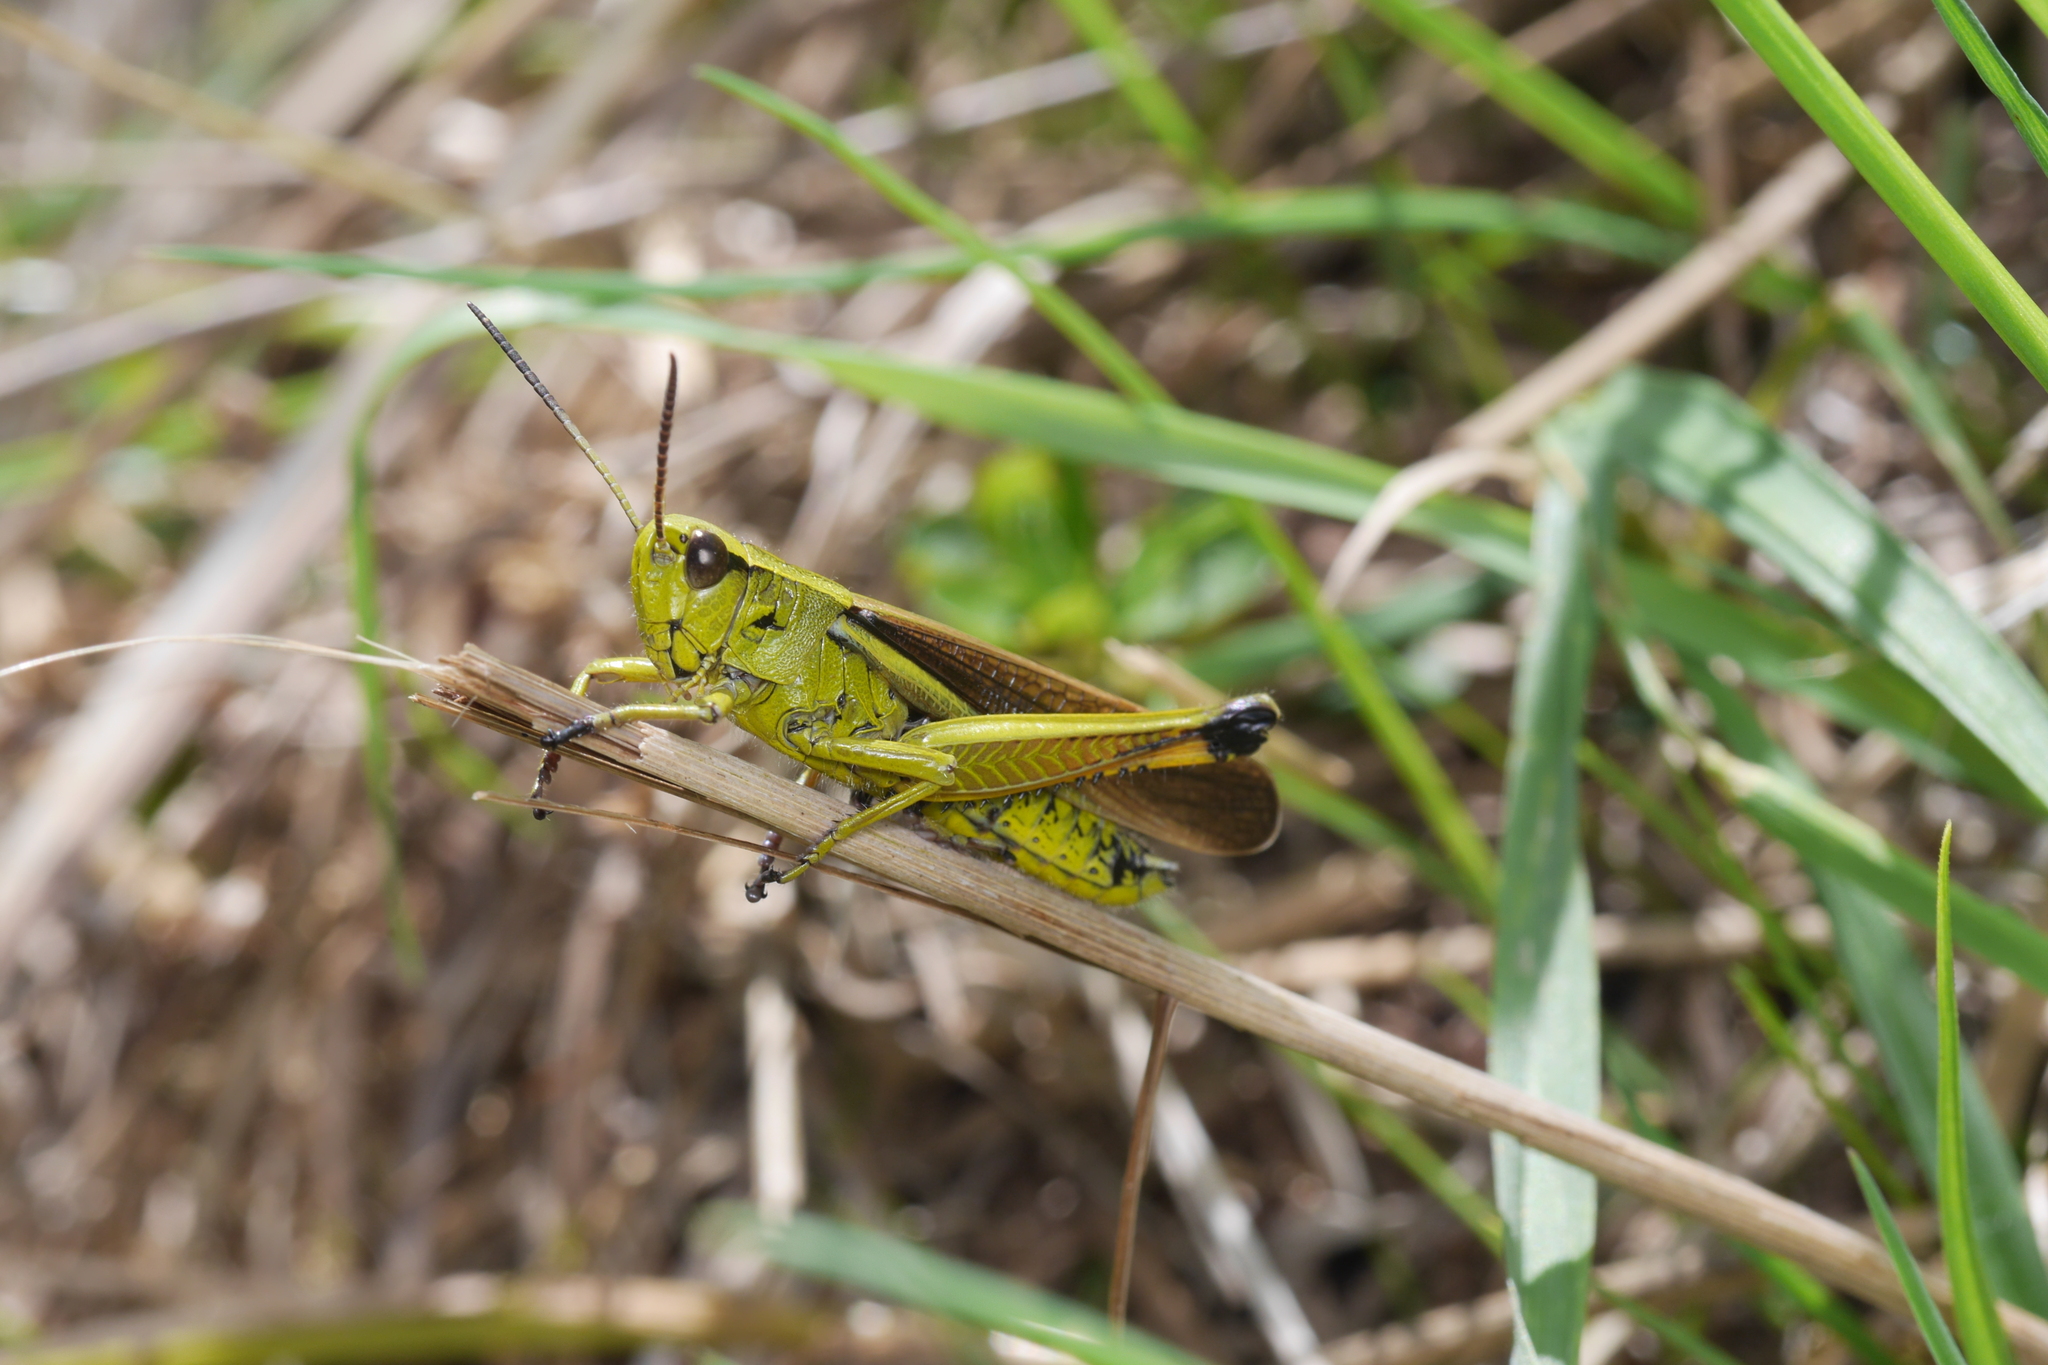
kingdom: Animalia
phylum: Arthropoda
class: Insecta
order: Orthoptera
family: Acrididae
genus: Stethophyma
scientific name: Stethophyma grossum
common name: Large marsh grasshopper
